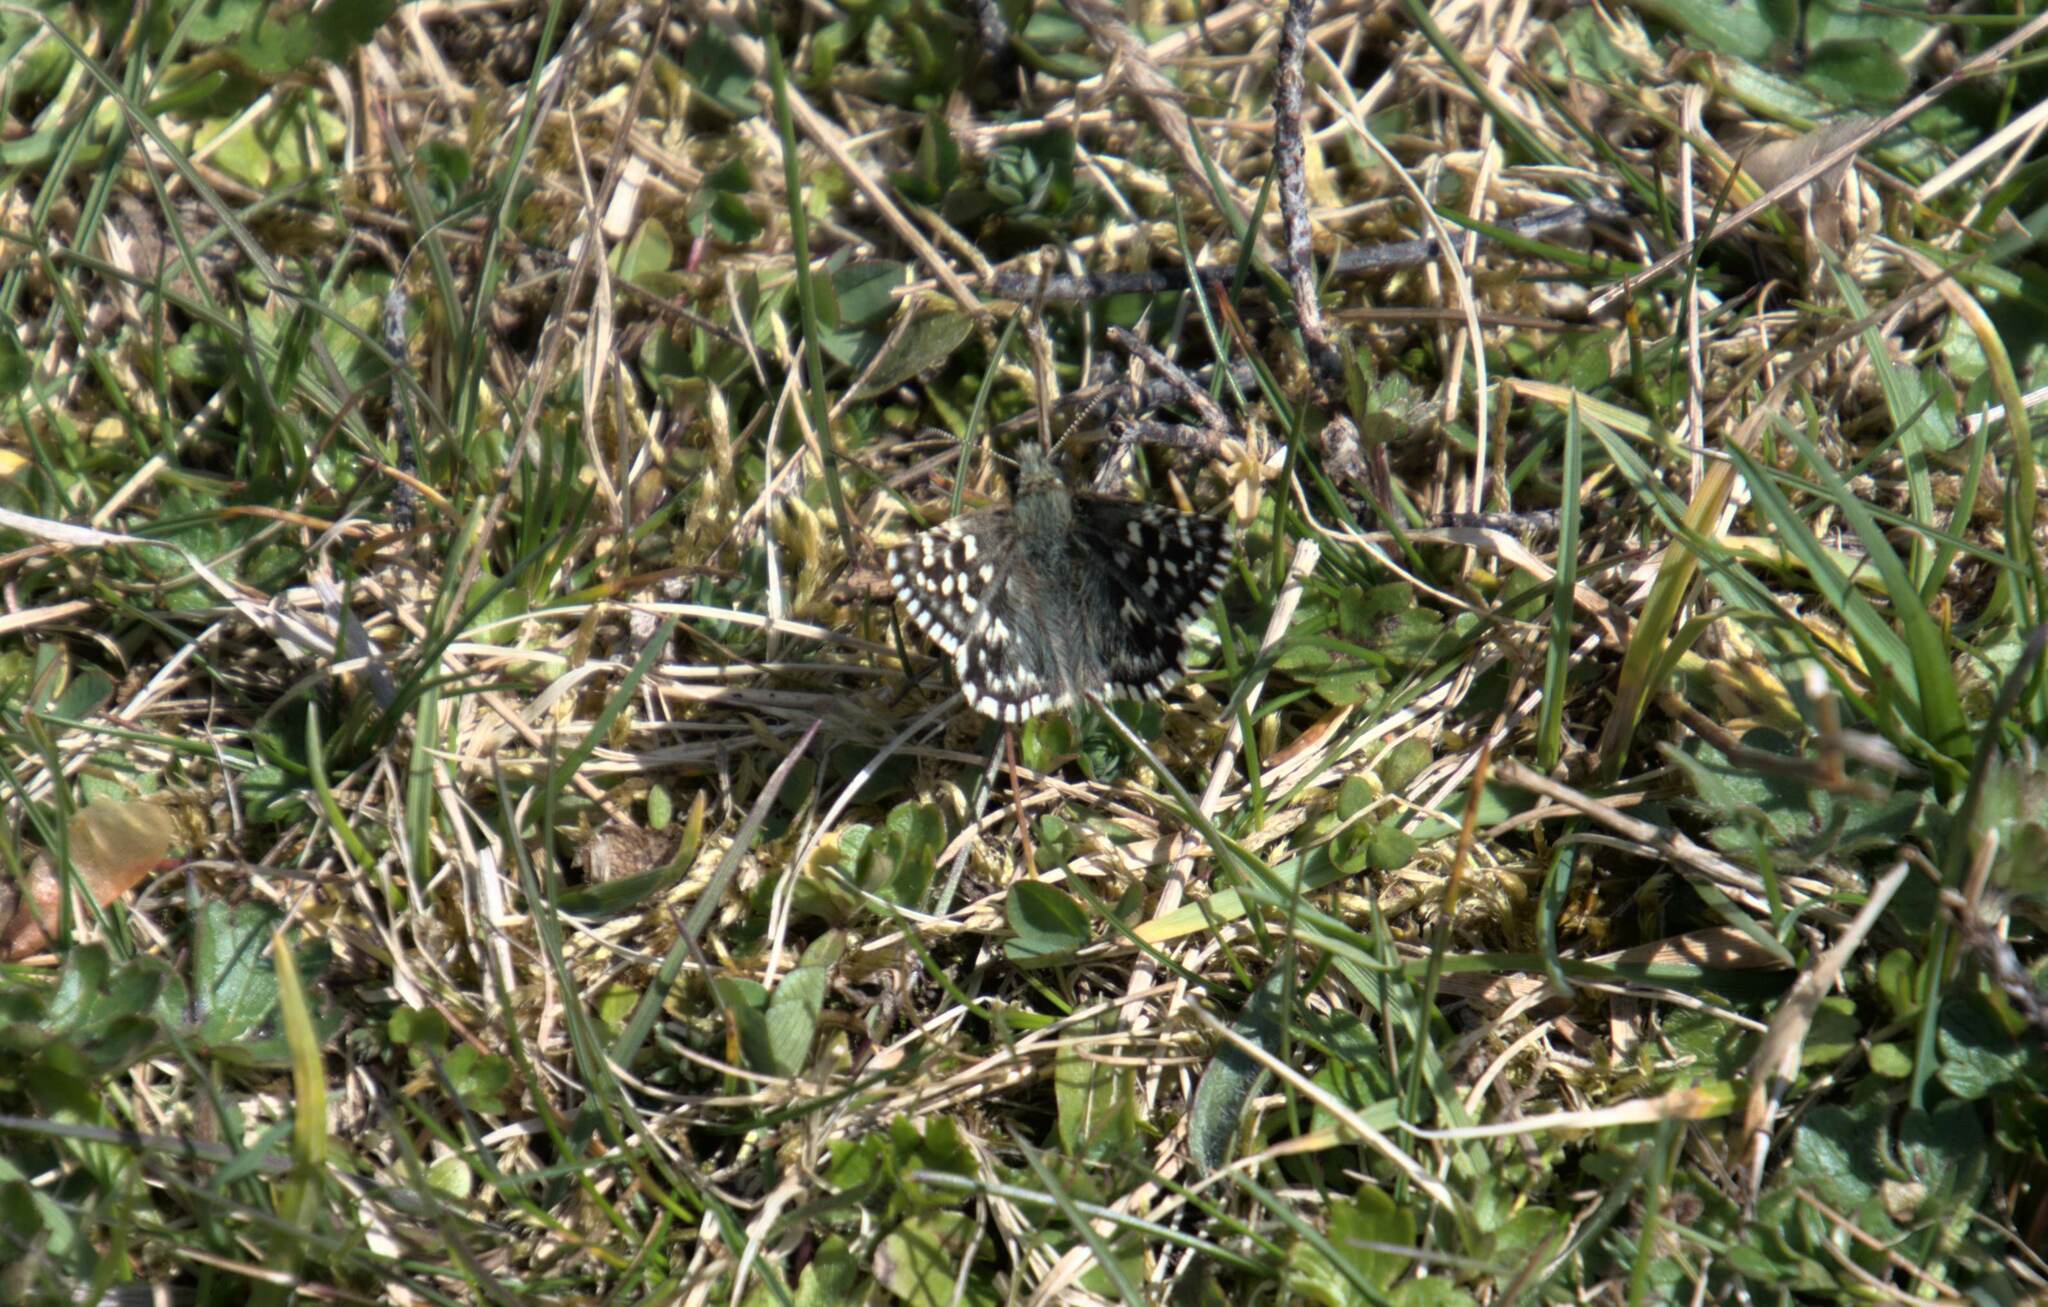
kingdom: Animalia
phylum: Arthropoda
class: Insecta
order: Lepidoptera
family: Hesperiidae
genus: Pyrgus
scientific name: Pyrgus malvae
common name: Grizzled skipper
